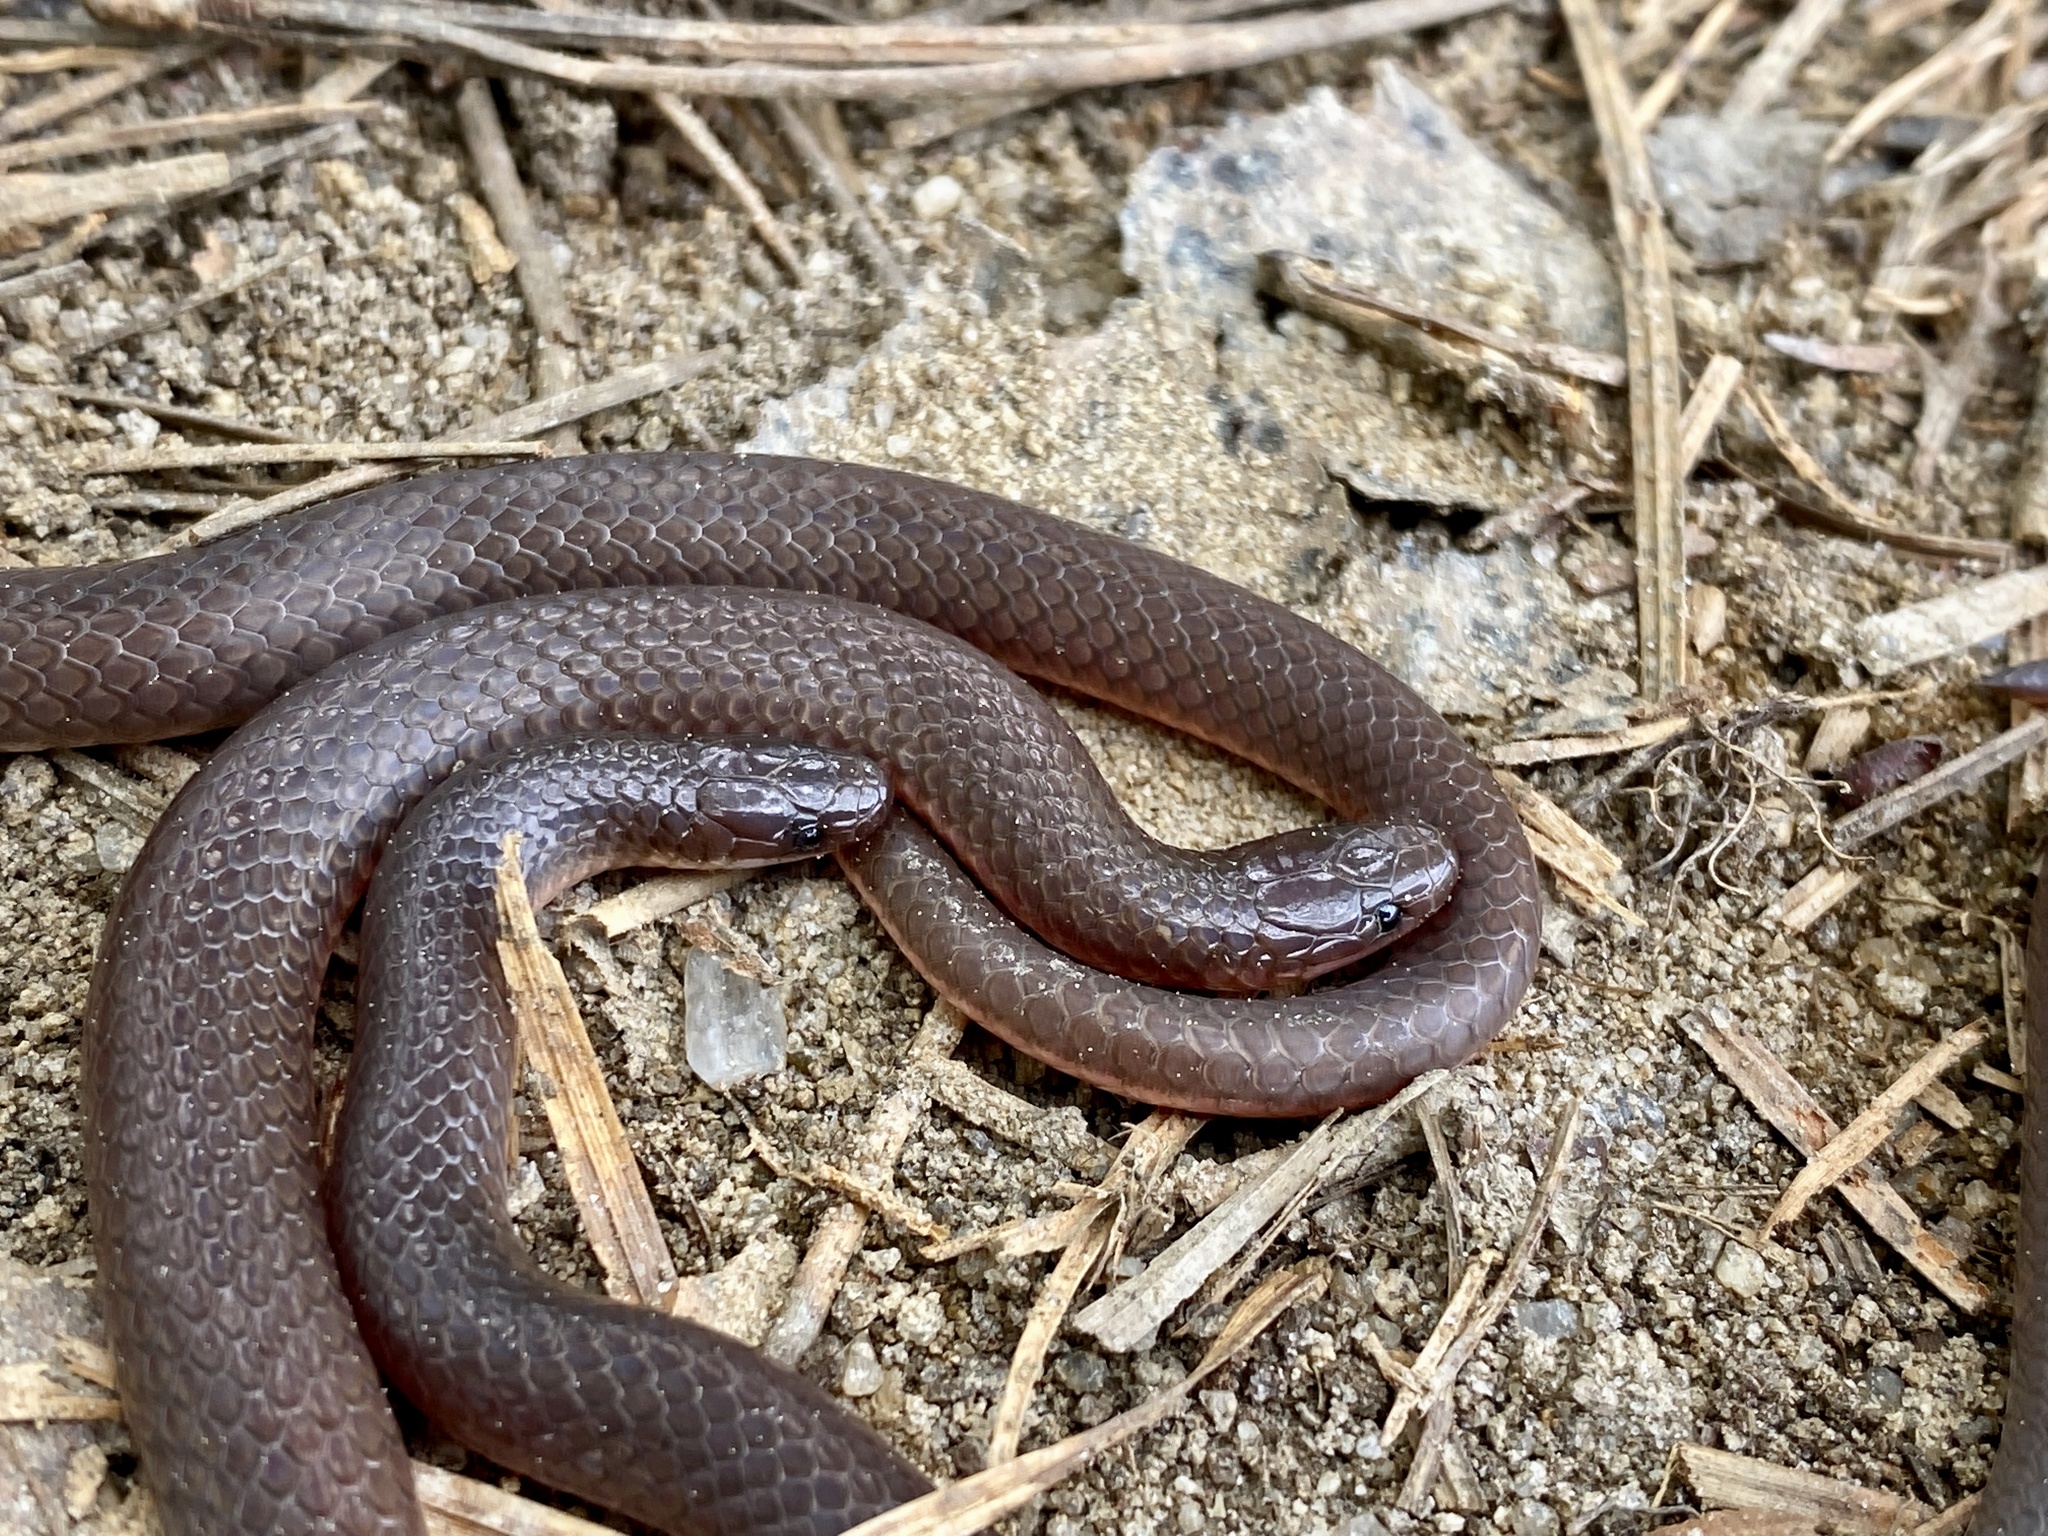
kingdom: Animalia
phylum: Chordata
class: Squamata
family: Colubridae
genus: Carphophis
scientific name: Carphophis amoenus
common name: Eastern worm snake
